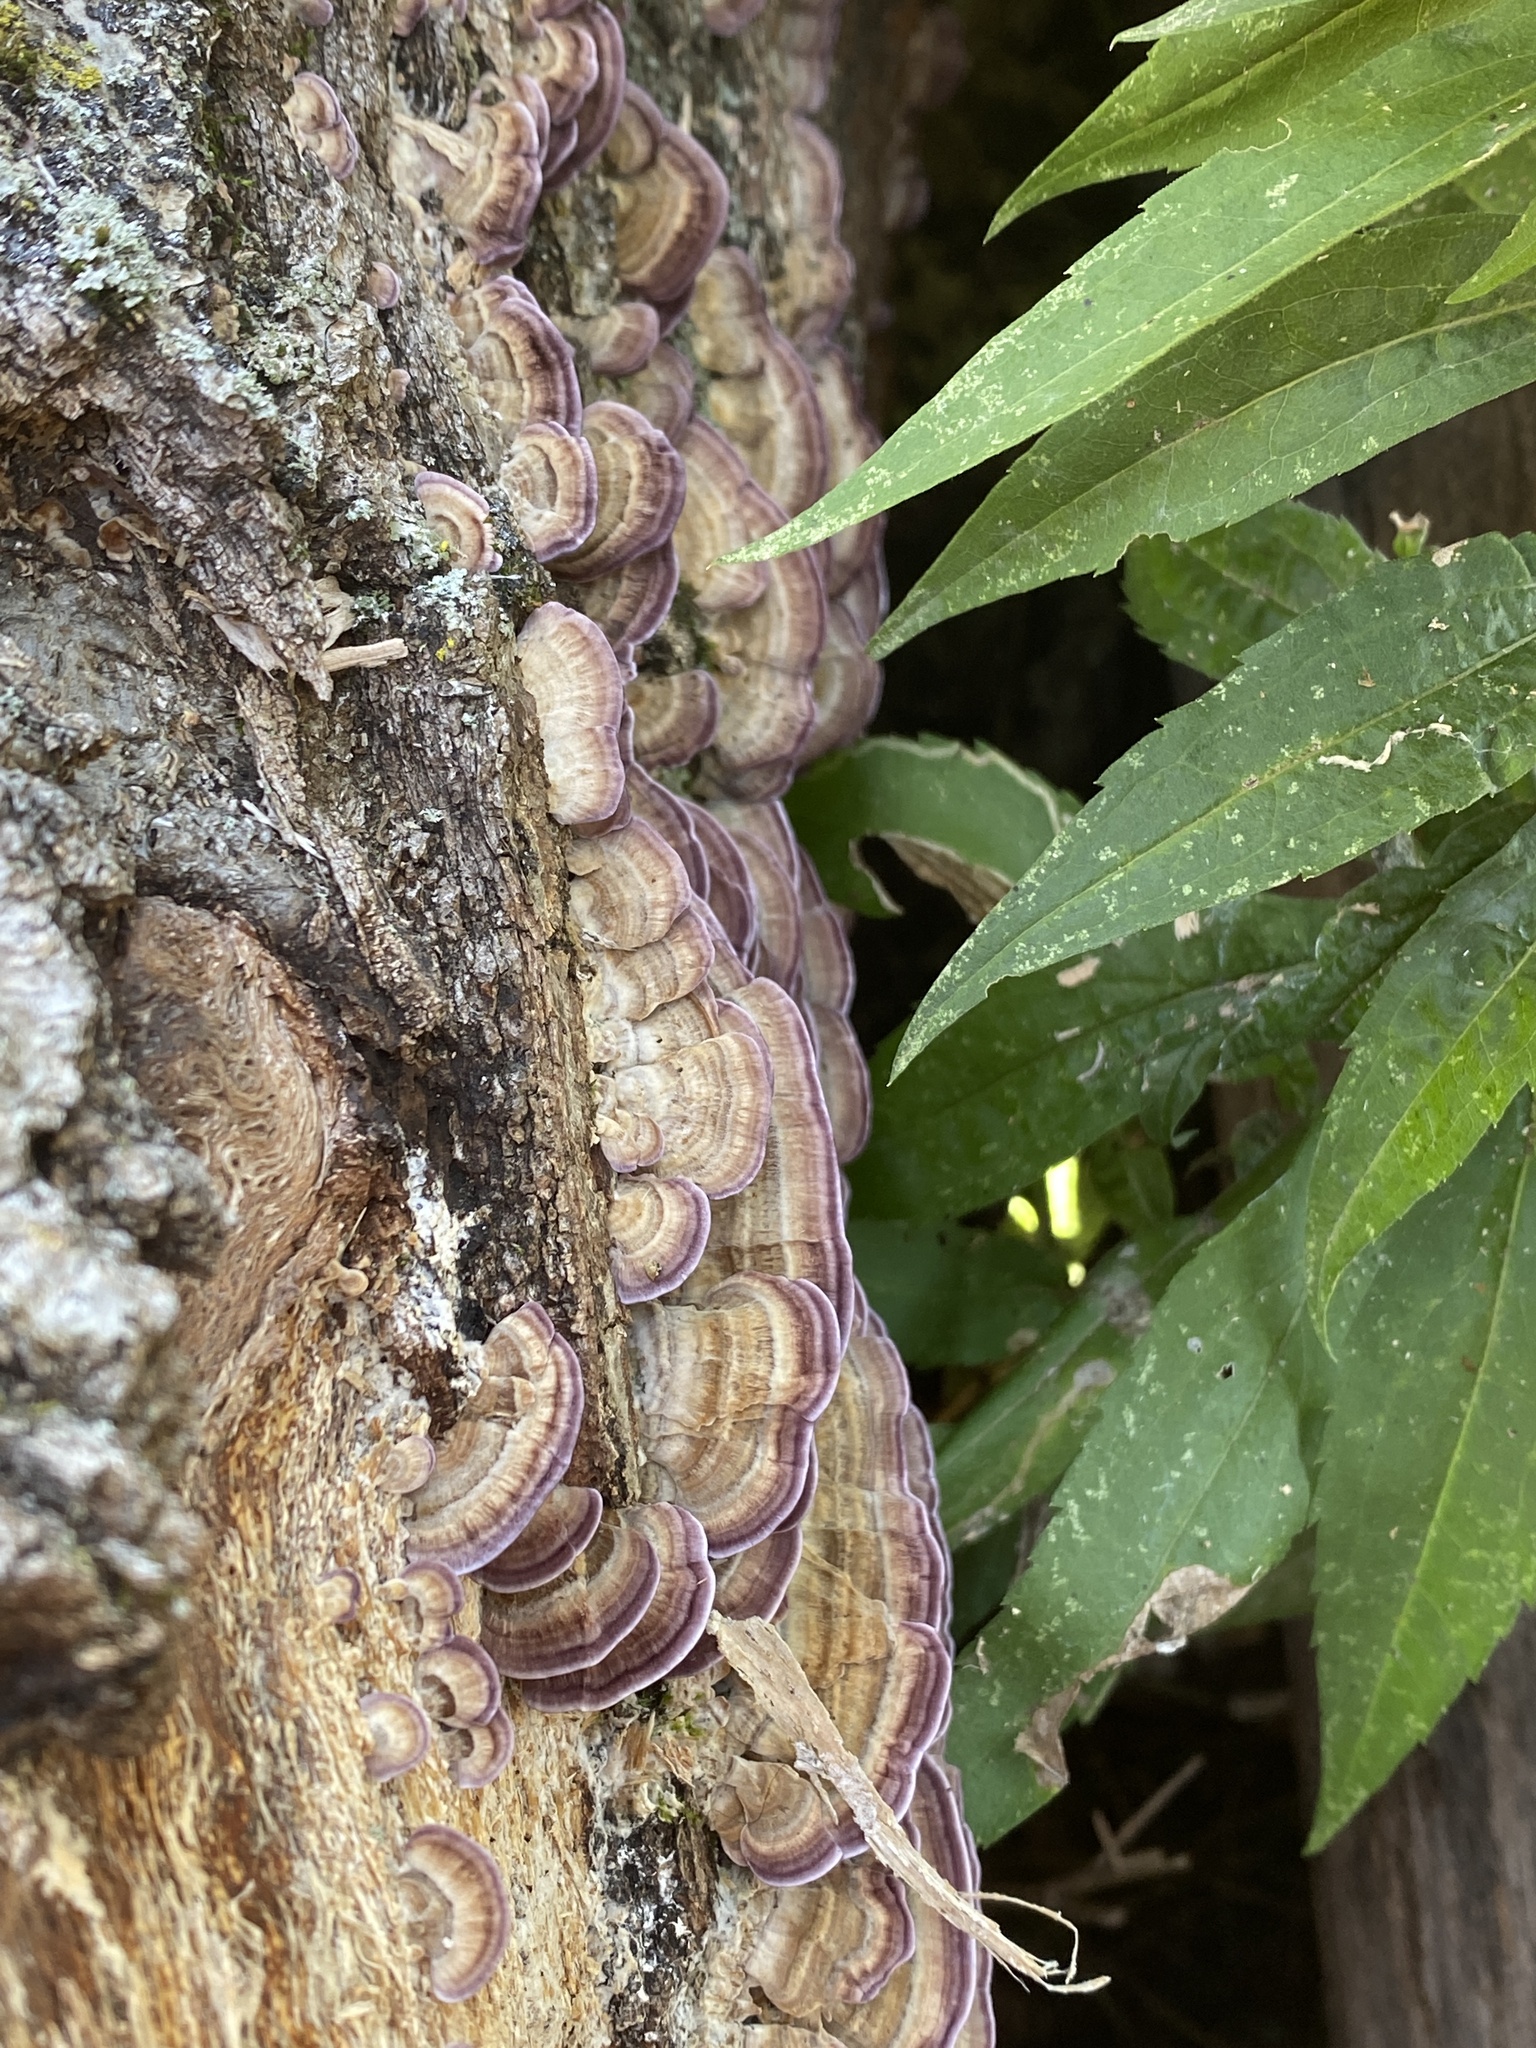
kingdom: Fungi
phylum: Basidiomycota
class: Agaricomycetes
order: Hymenochaetales
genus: Trichaptum
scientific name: Trichaptum biforme
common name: Violet-toothed polypore
